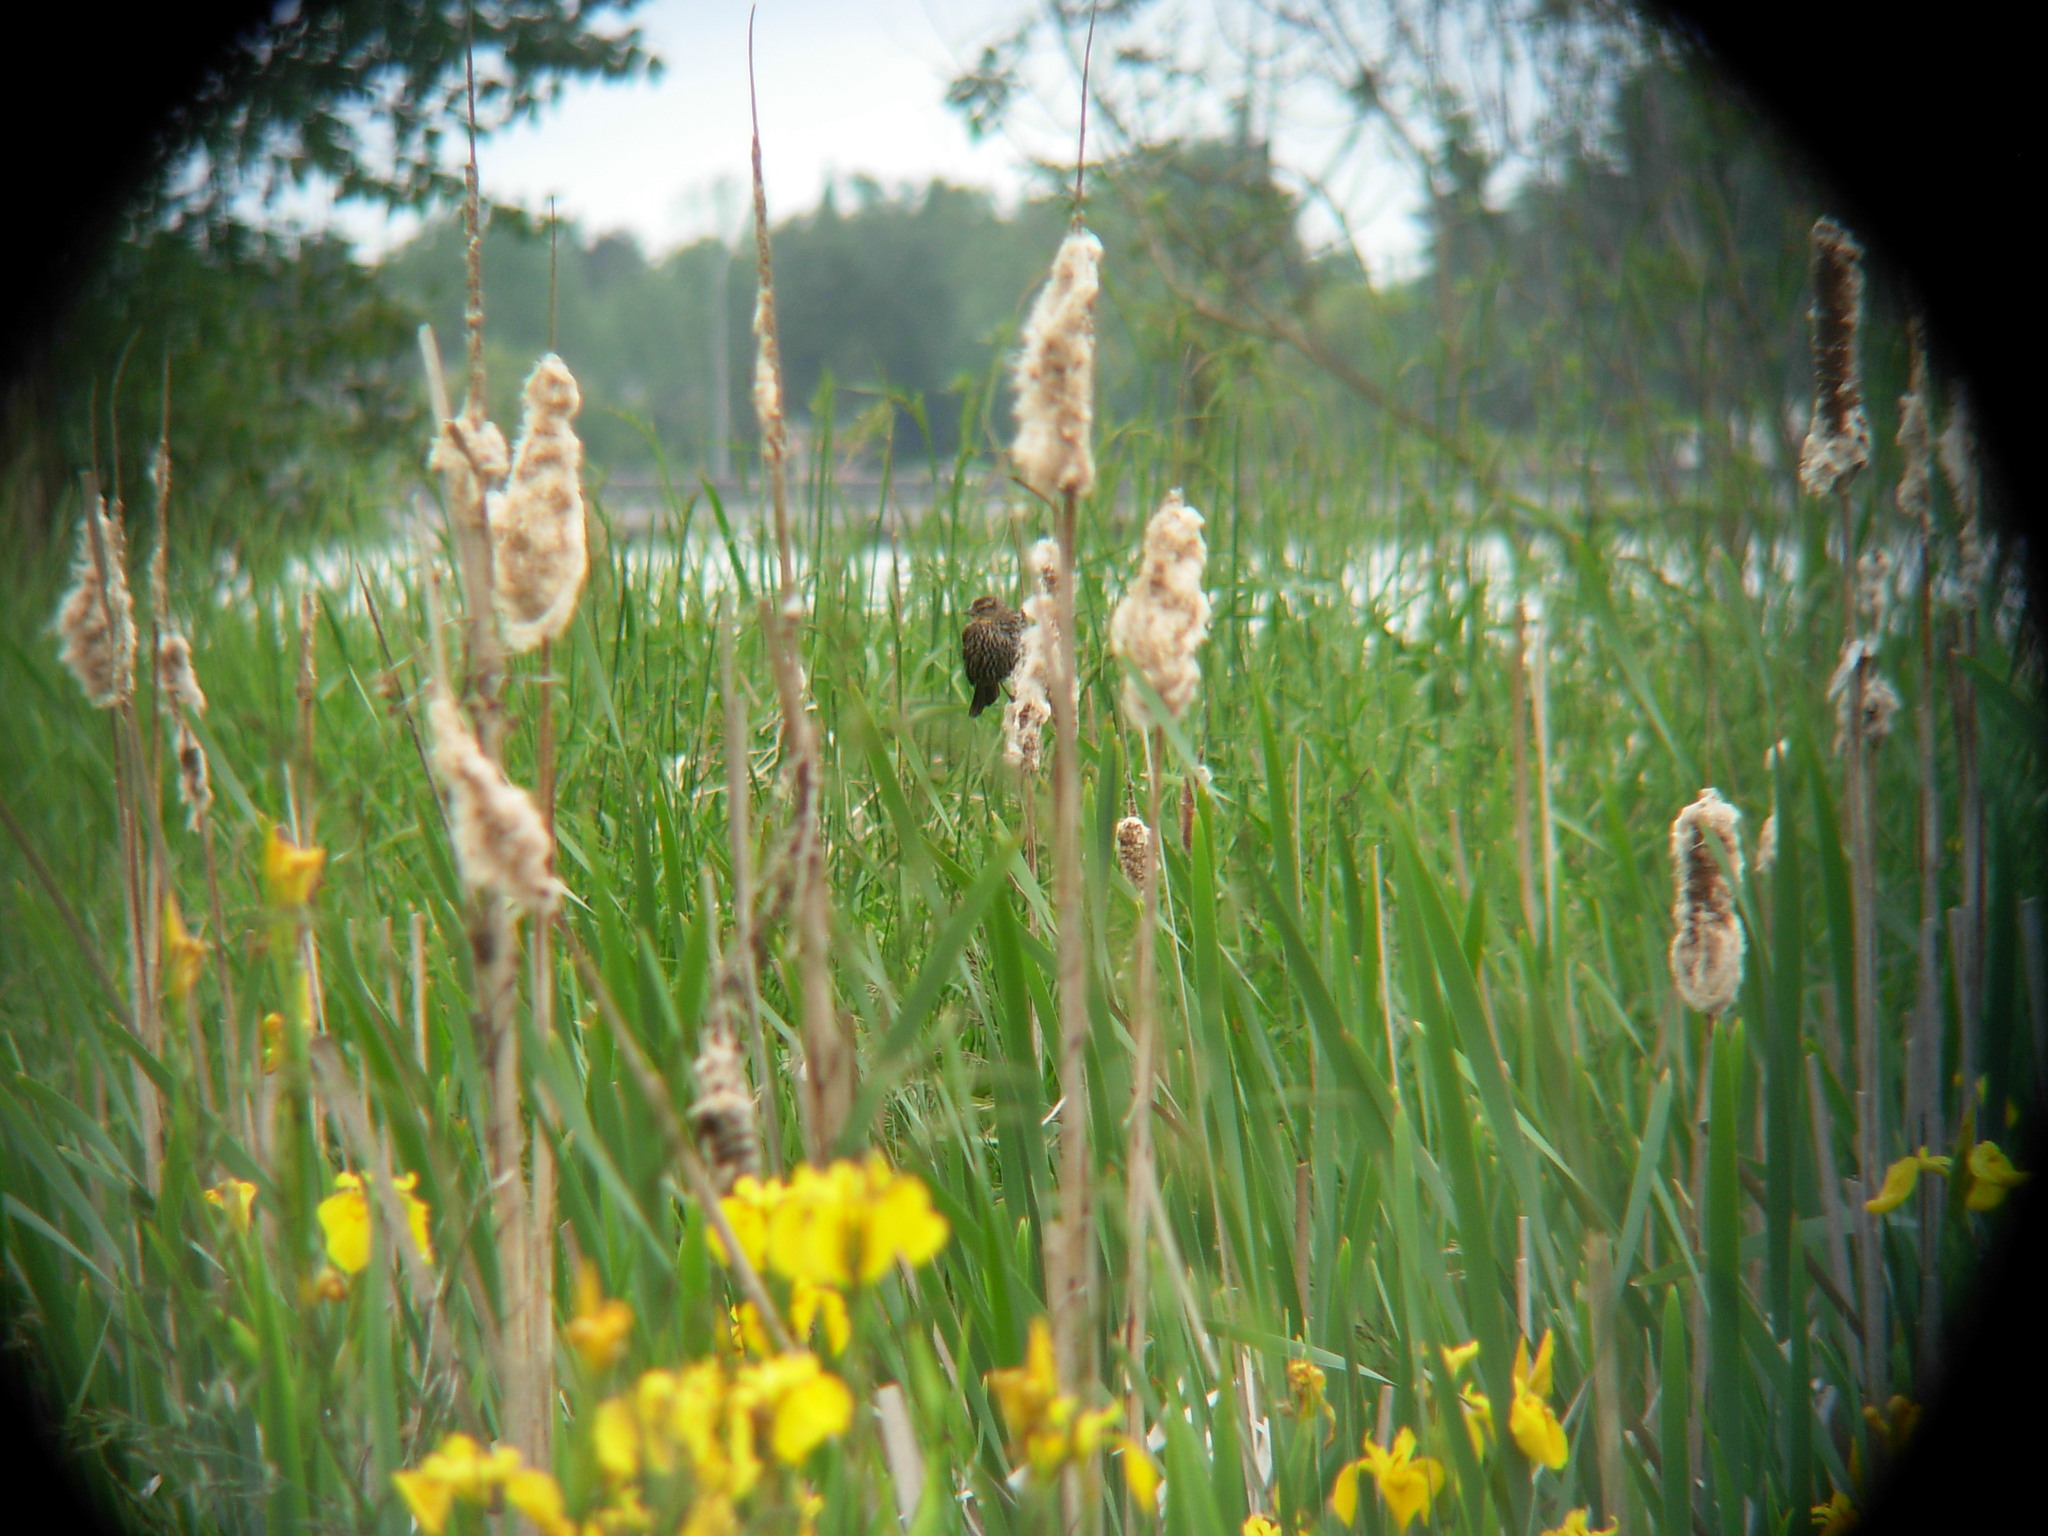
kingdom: Animalia
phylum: Chordata
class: Aves
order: Passeriformes
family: Icteridae
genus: Agelaius
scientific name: Agelaius phoeniceus
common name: Red-winged blackbird
